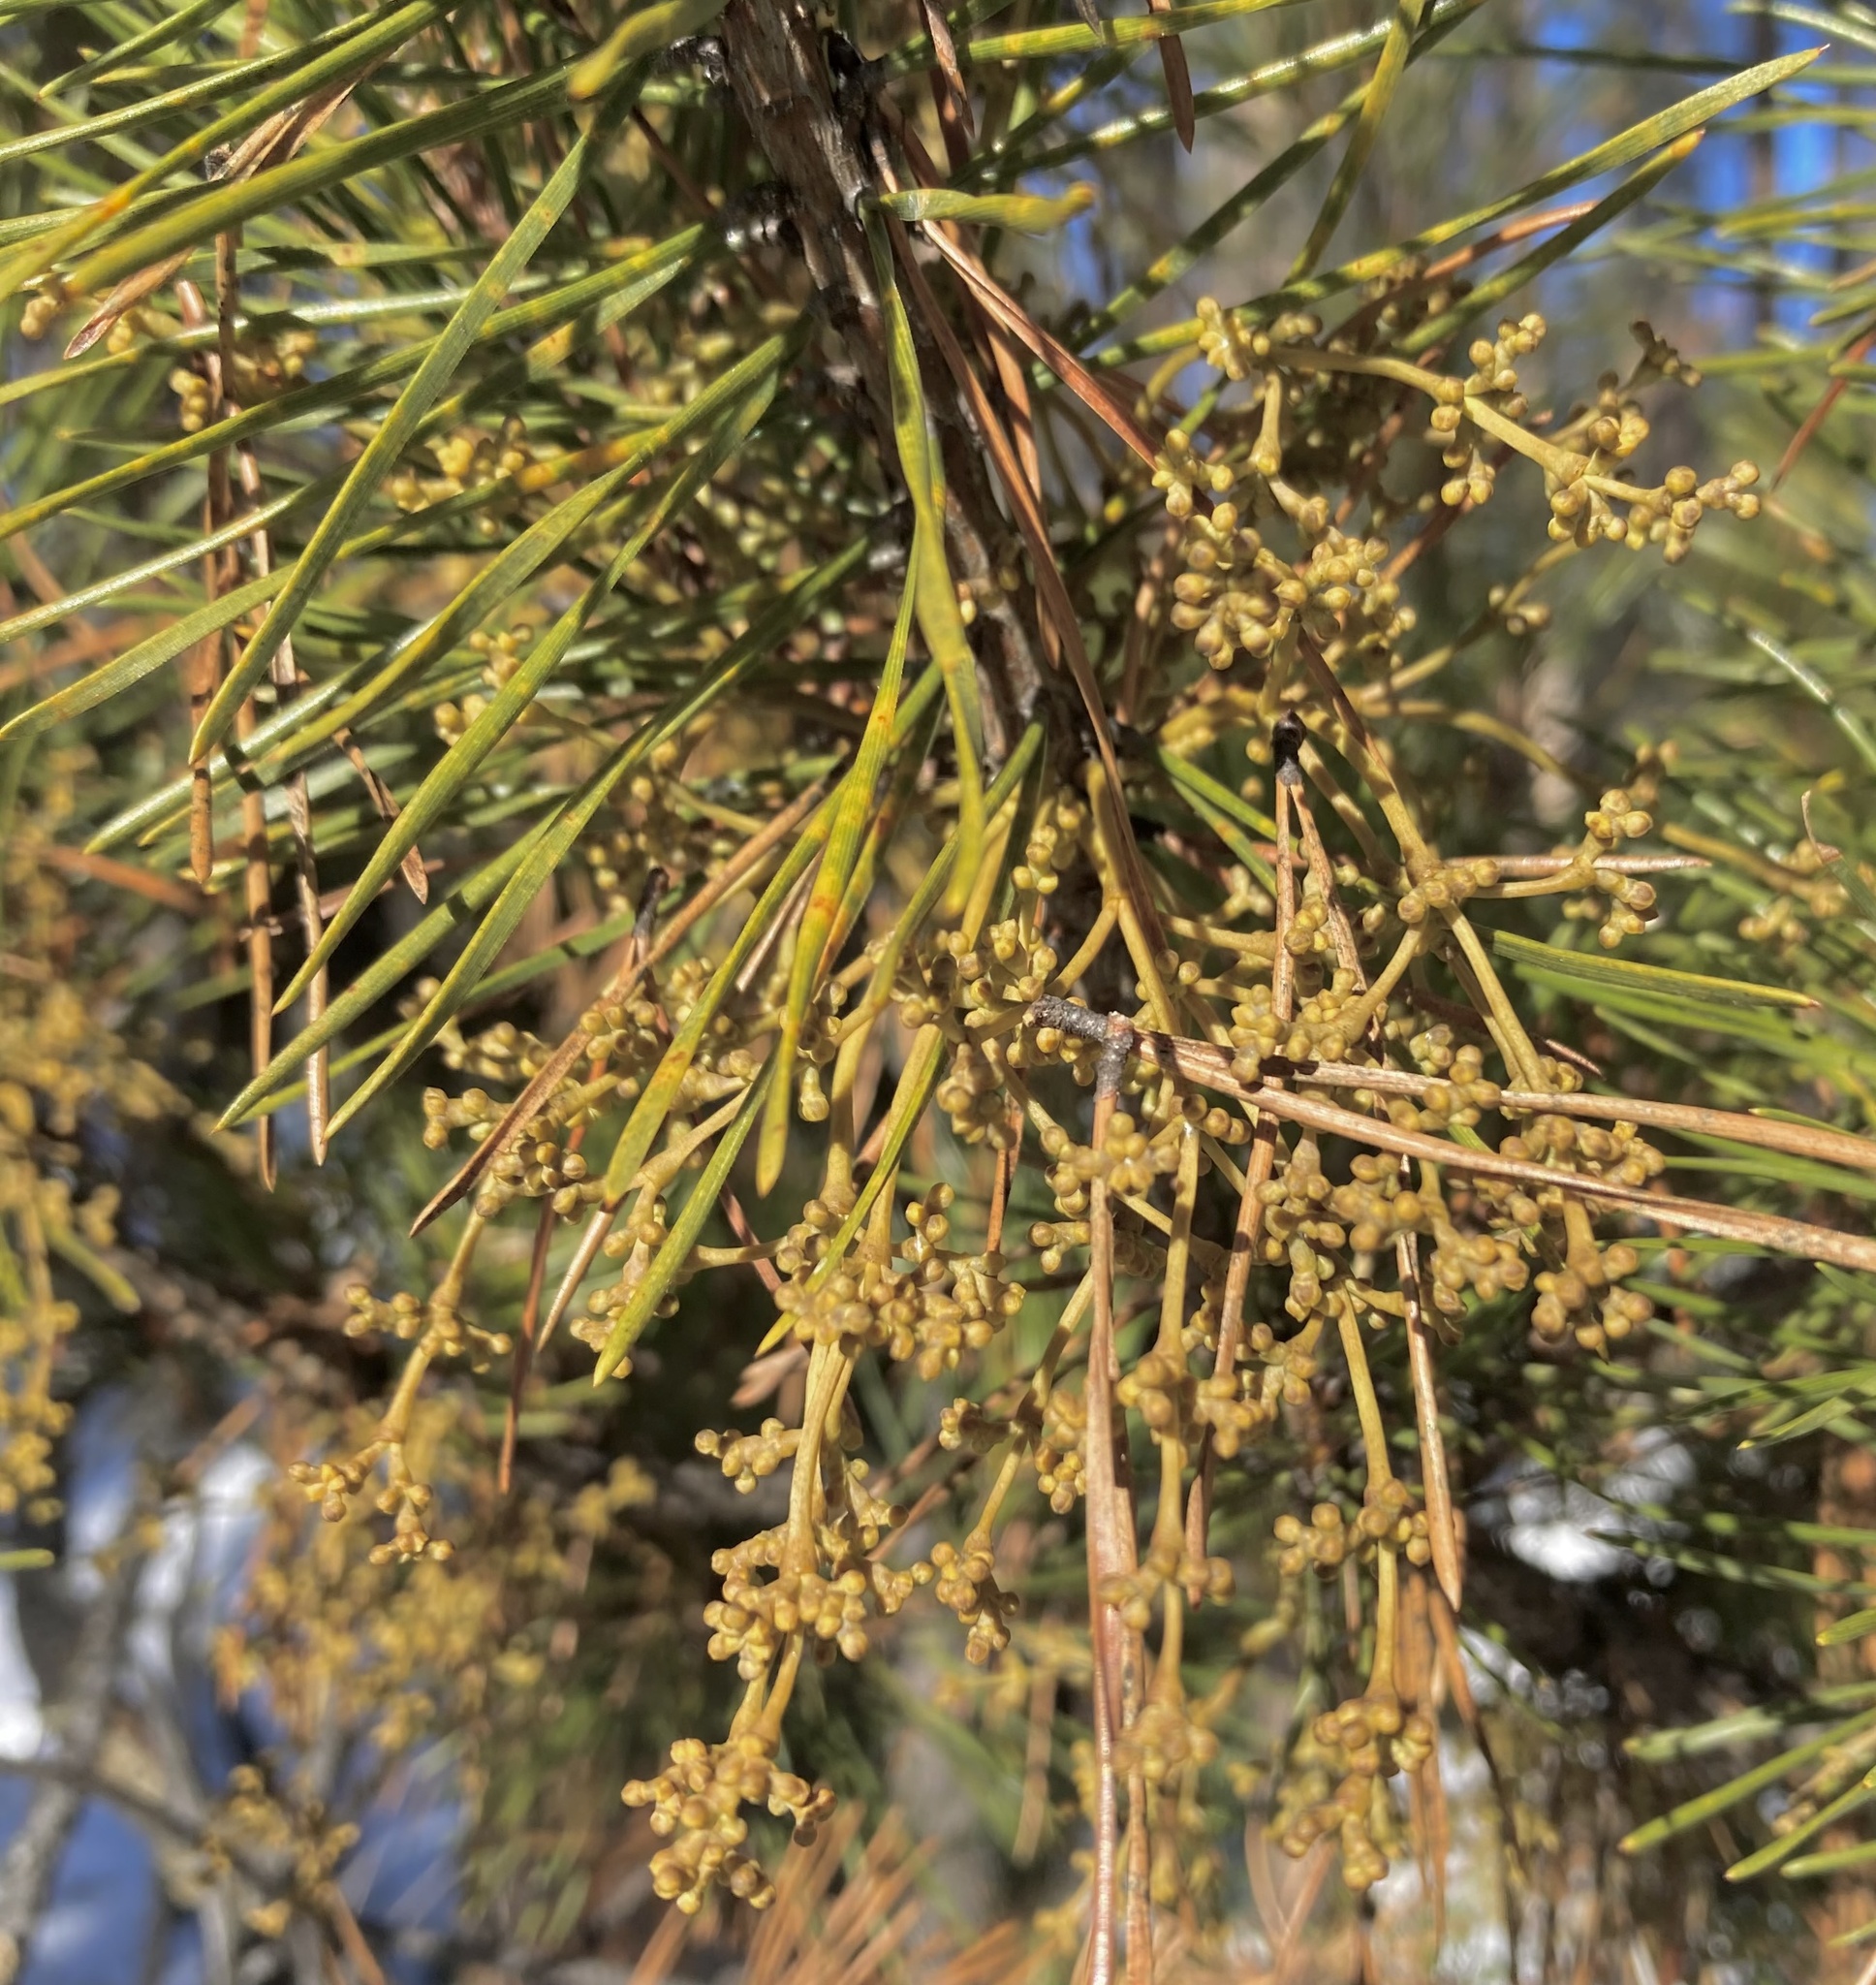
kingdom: Plantae
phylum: Tracheophyta
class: Magnoliopsida
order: Santalales
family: Viscaceae
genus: Arceuthobium
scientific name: Arceuthobium americanum
